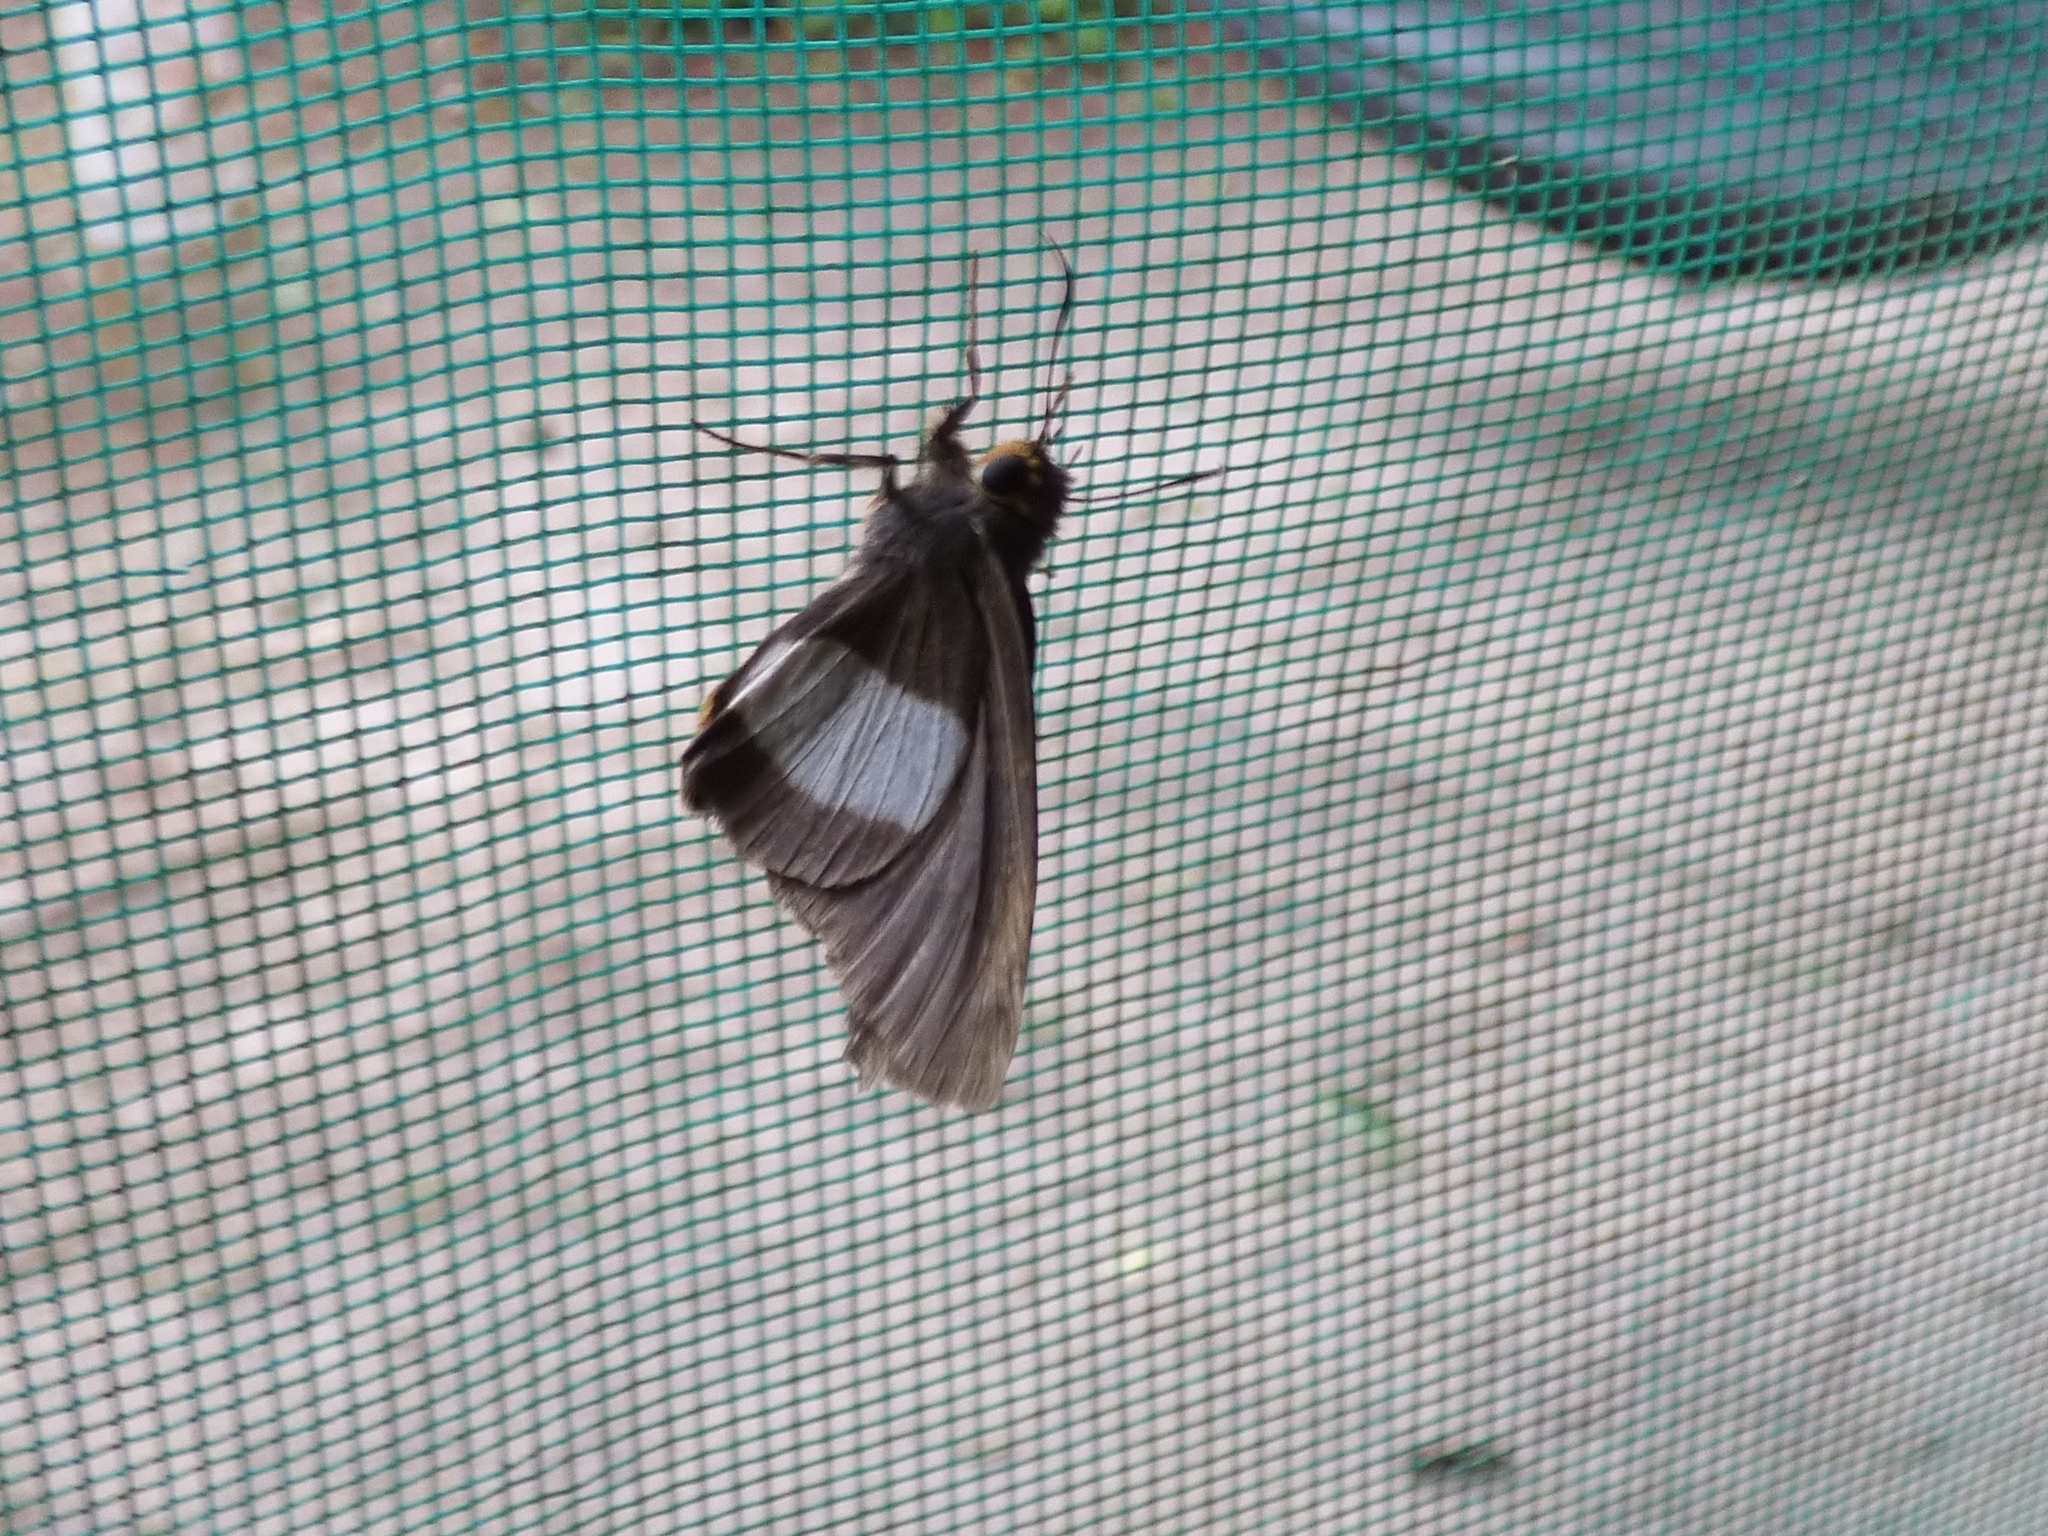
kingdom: Animalia
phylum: Arthropoda
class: Insecta
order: Lepidoptera
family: Hesperiidae
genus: Coeliades
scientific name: Coeliades forestan
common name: Striped policeman
